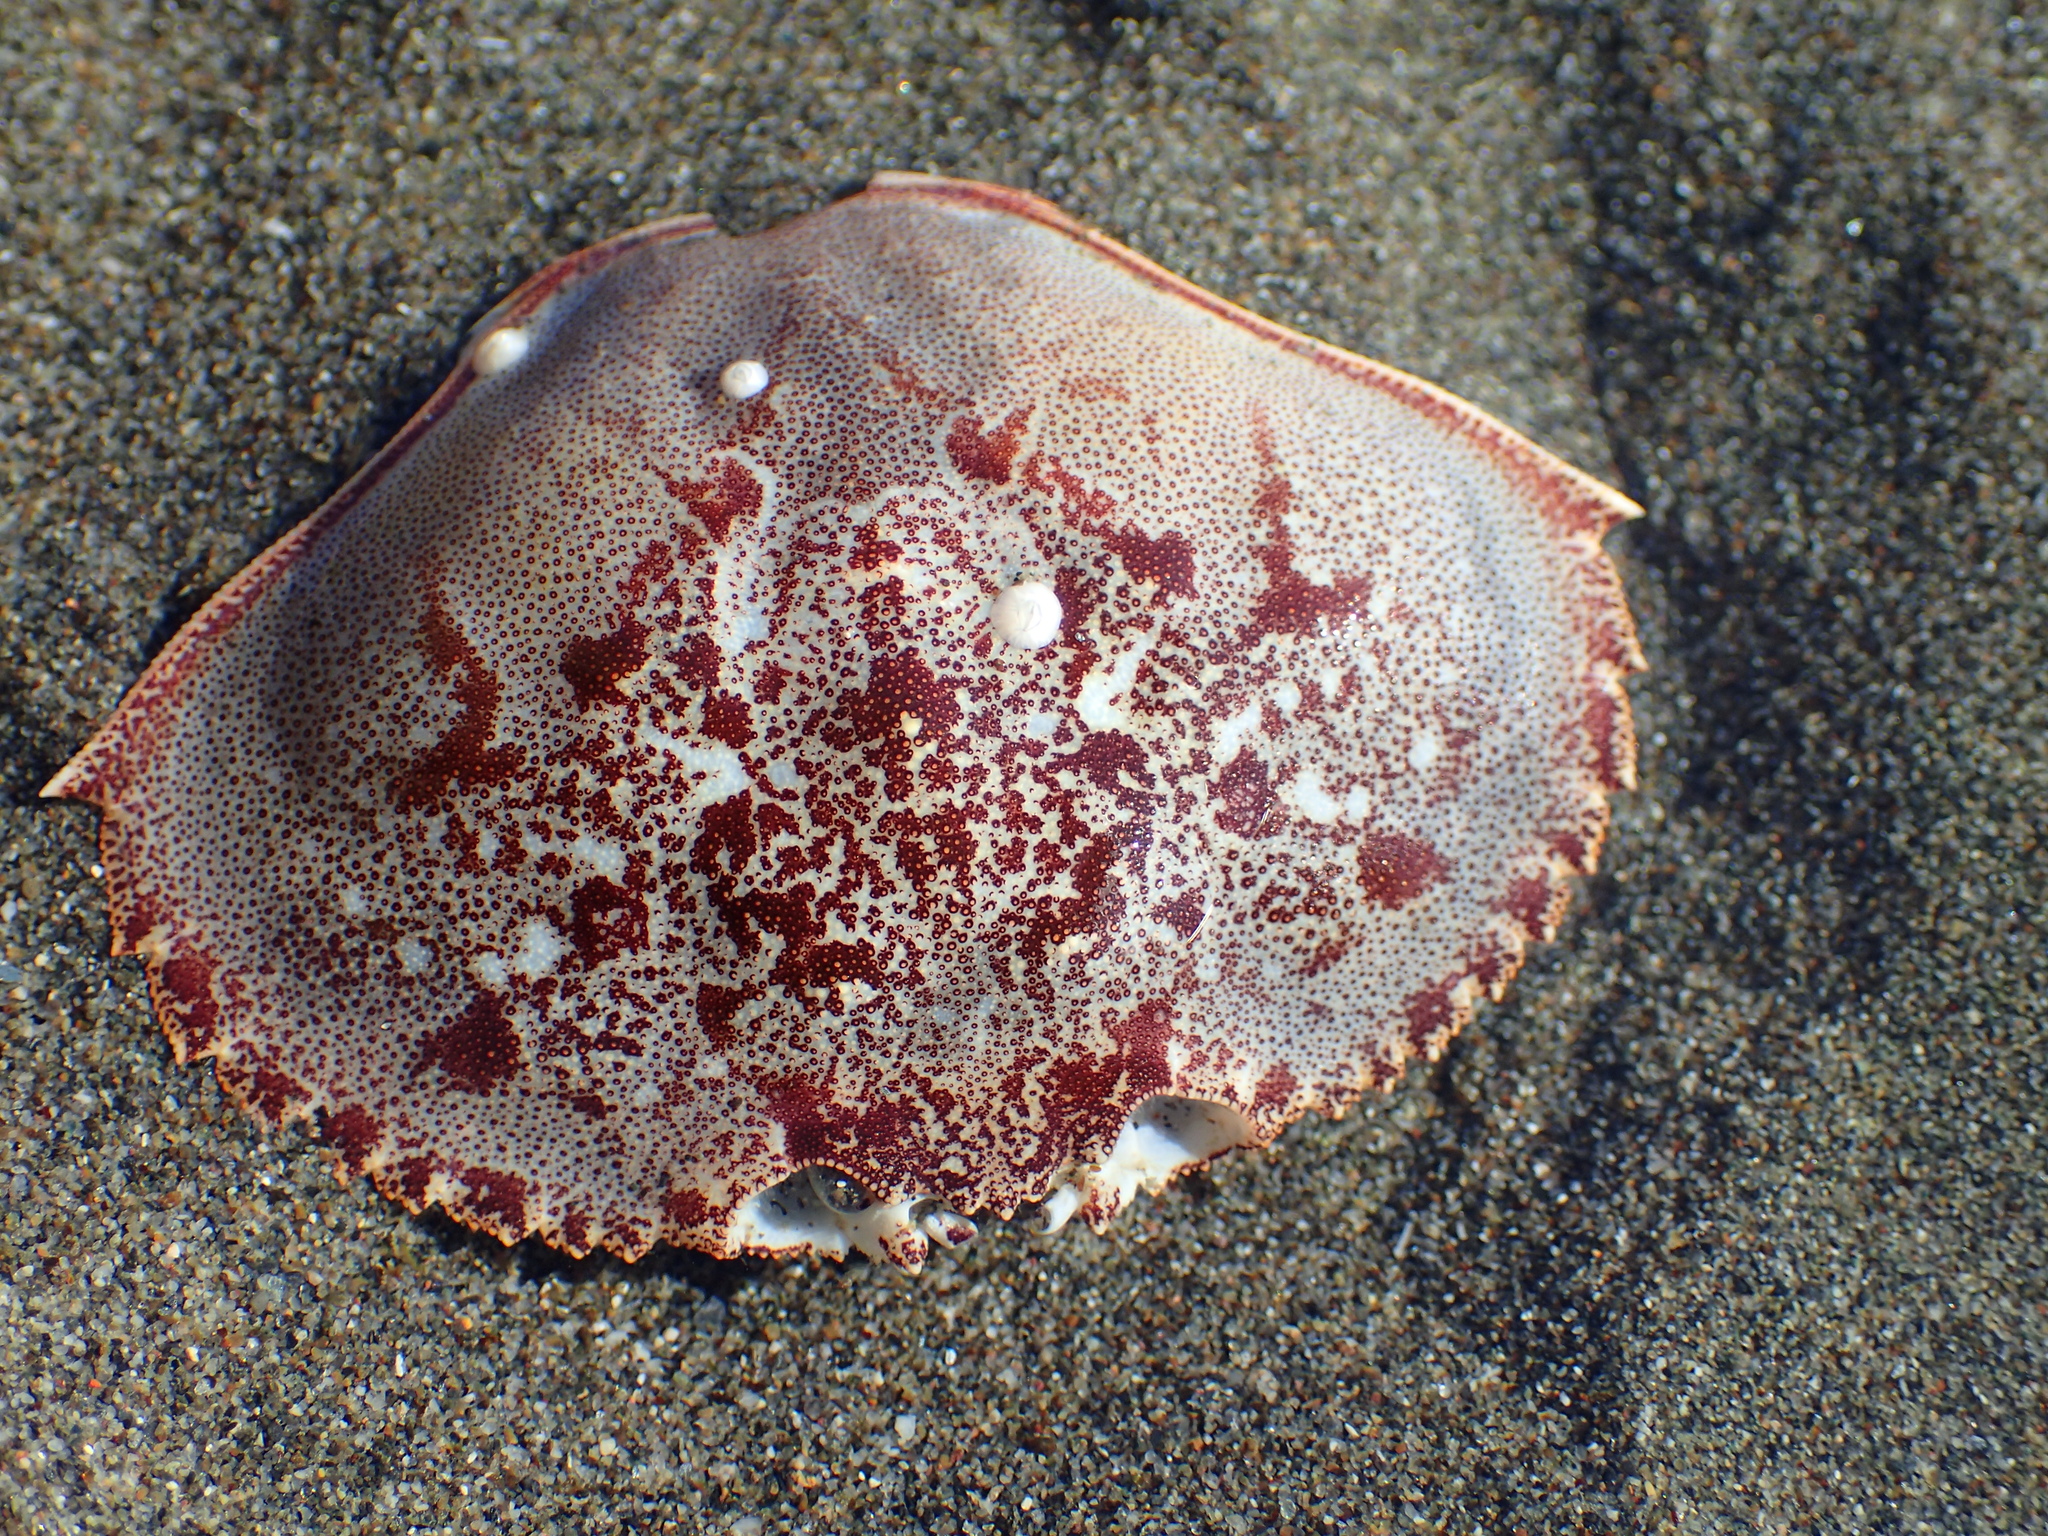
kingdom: Animalia
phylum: Arthropoda
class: Malacostraca
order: Decapoda
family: Cancridae
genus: Metacarcinus
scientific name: Metacarcinus magister
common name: Californian crab
